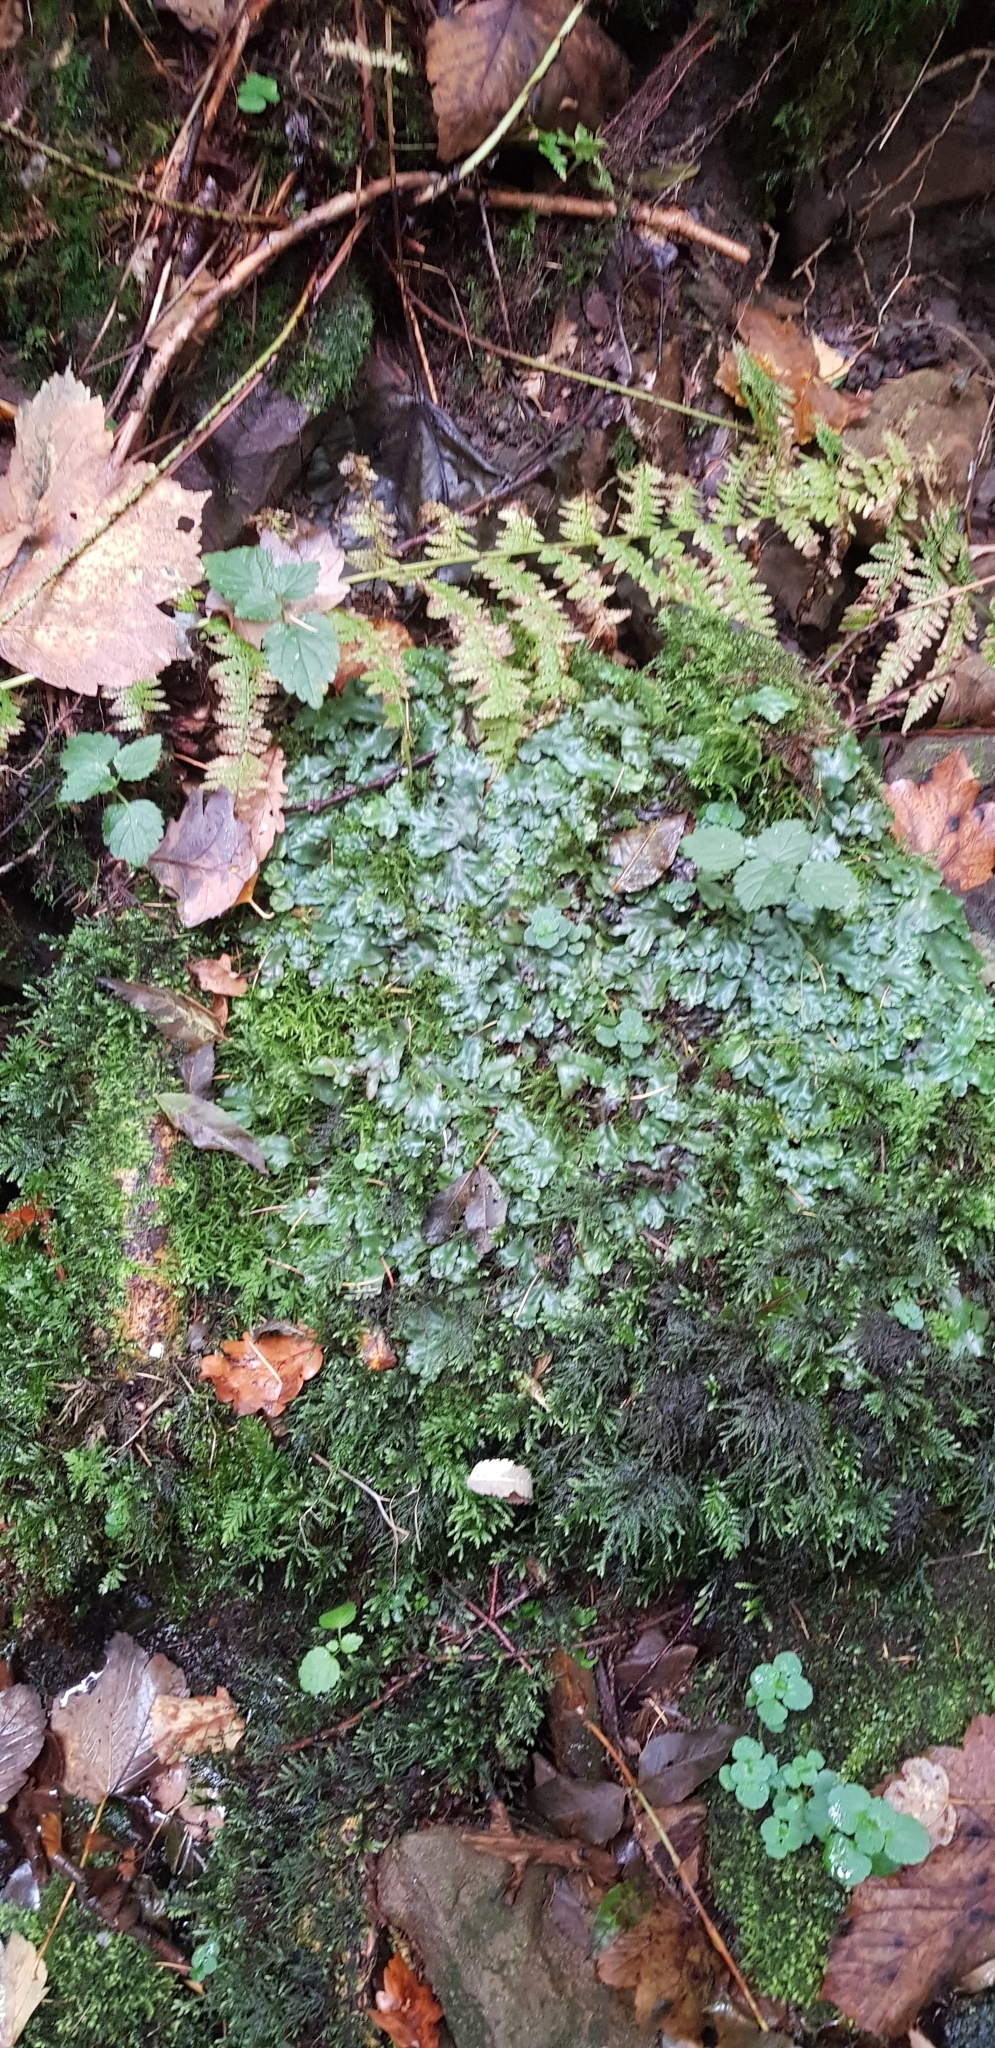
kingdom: Plantae
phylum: Marchantiophyta
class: Marchantiopsida
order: Marchantiales
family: Conocephalaceae
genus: Conocephalum
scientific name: Conocephalum conicum
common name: Great scented liverwort
